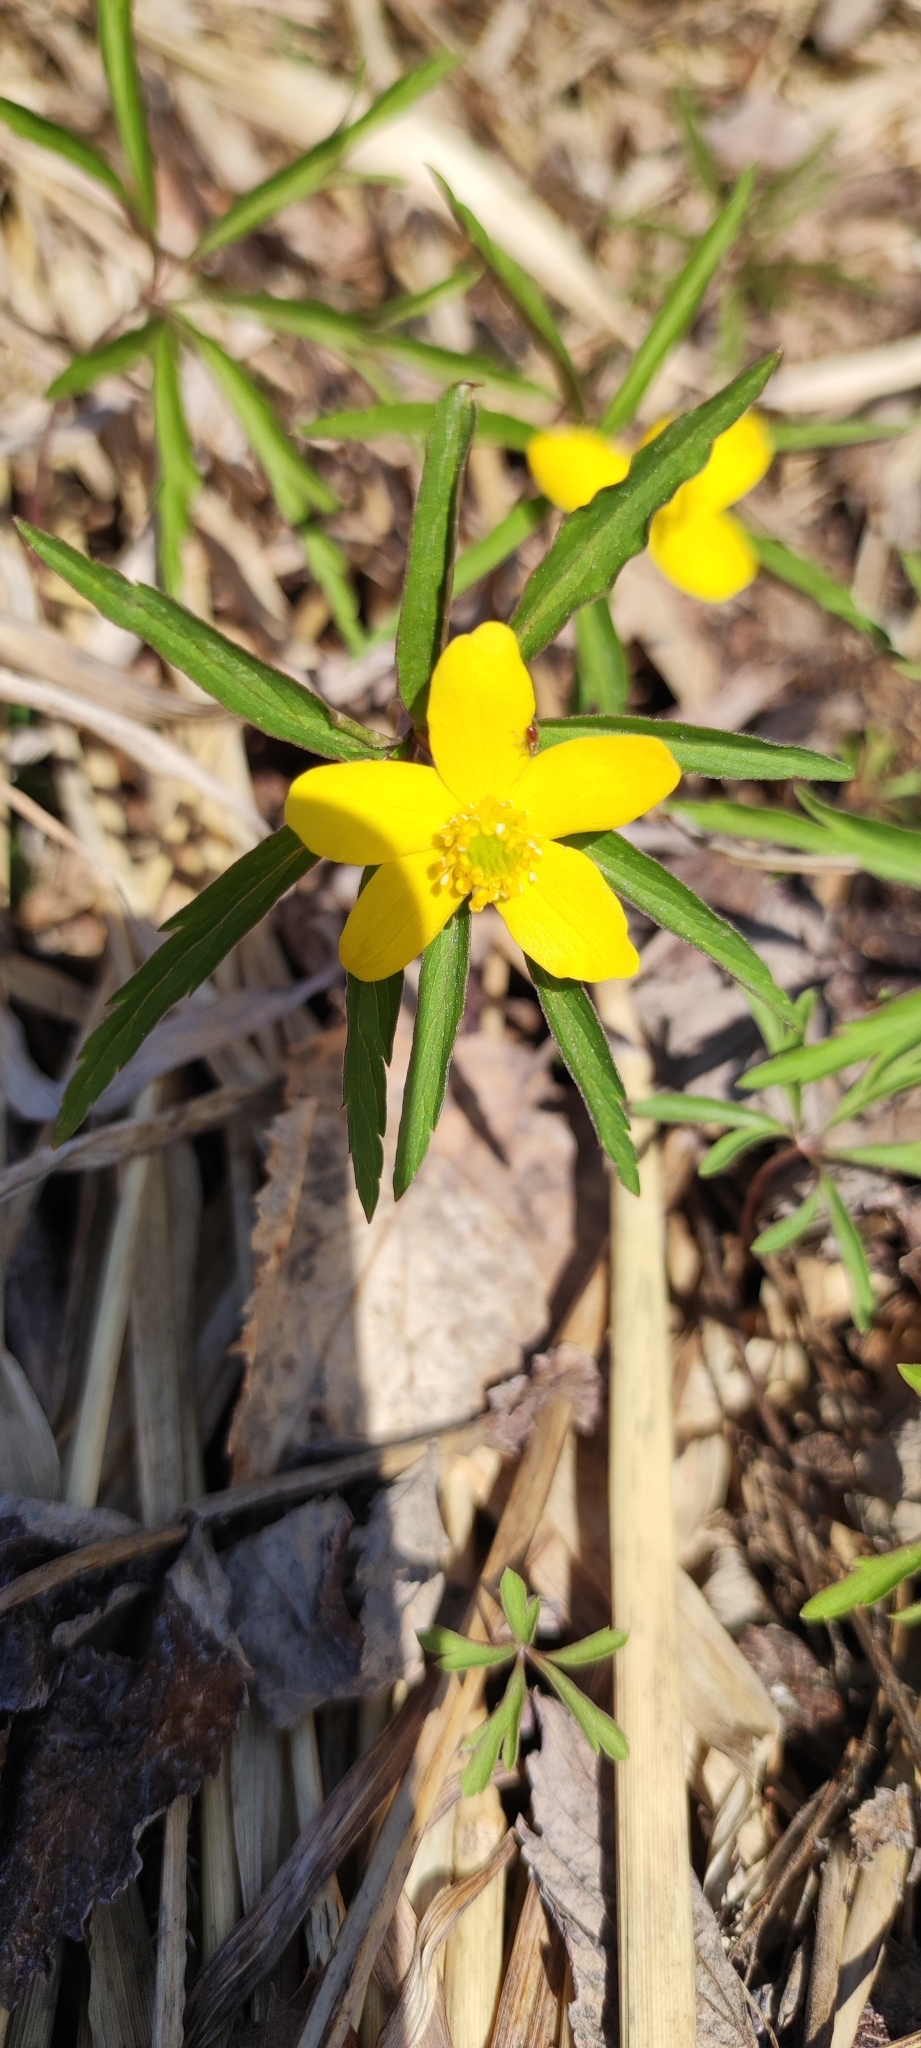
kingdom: Plantae
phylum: Tracheophyta
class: Magnoliopsida
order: Ranunculales
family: Ranunculaceae
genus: Anemone
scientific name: Anemone ranunculoides
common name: Yellow anemone
